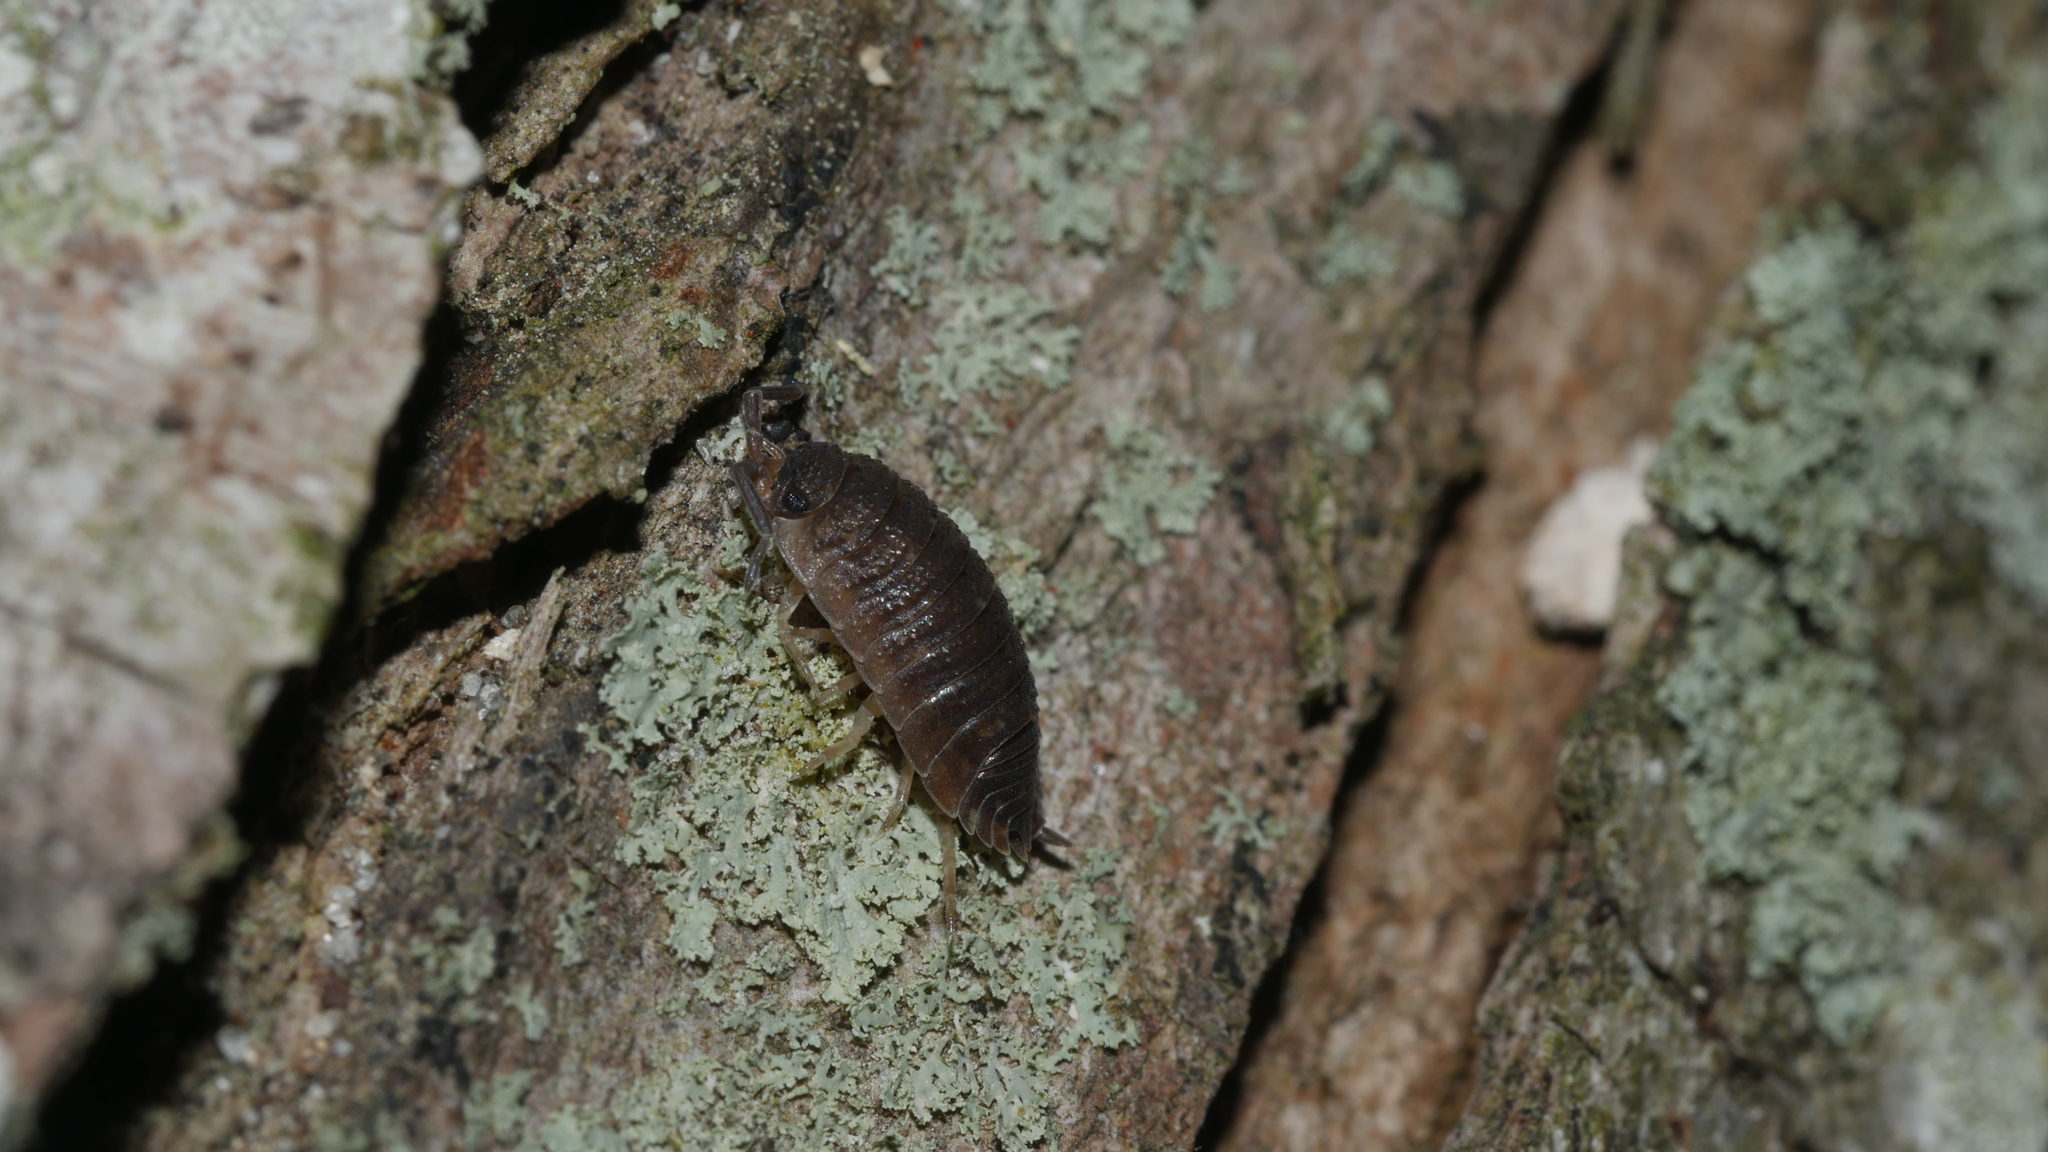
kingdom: Animalia
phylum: Arthropoda
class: Malacostraca
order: Isopoda
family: Porcellionidae
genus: Porcellio
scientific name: Porcellio scaber
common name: Common rough woodlouse
